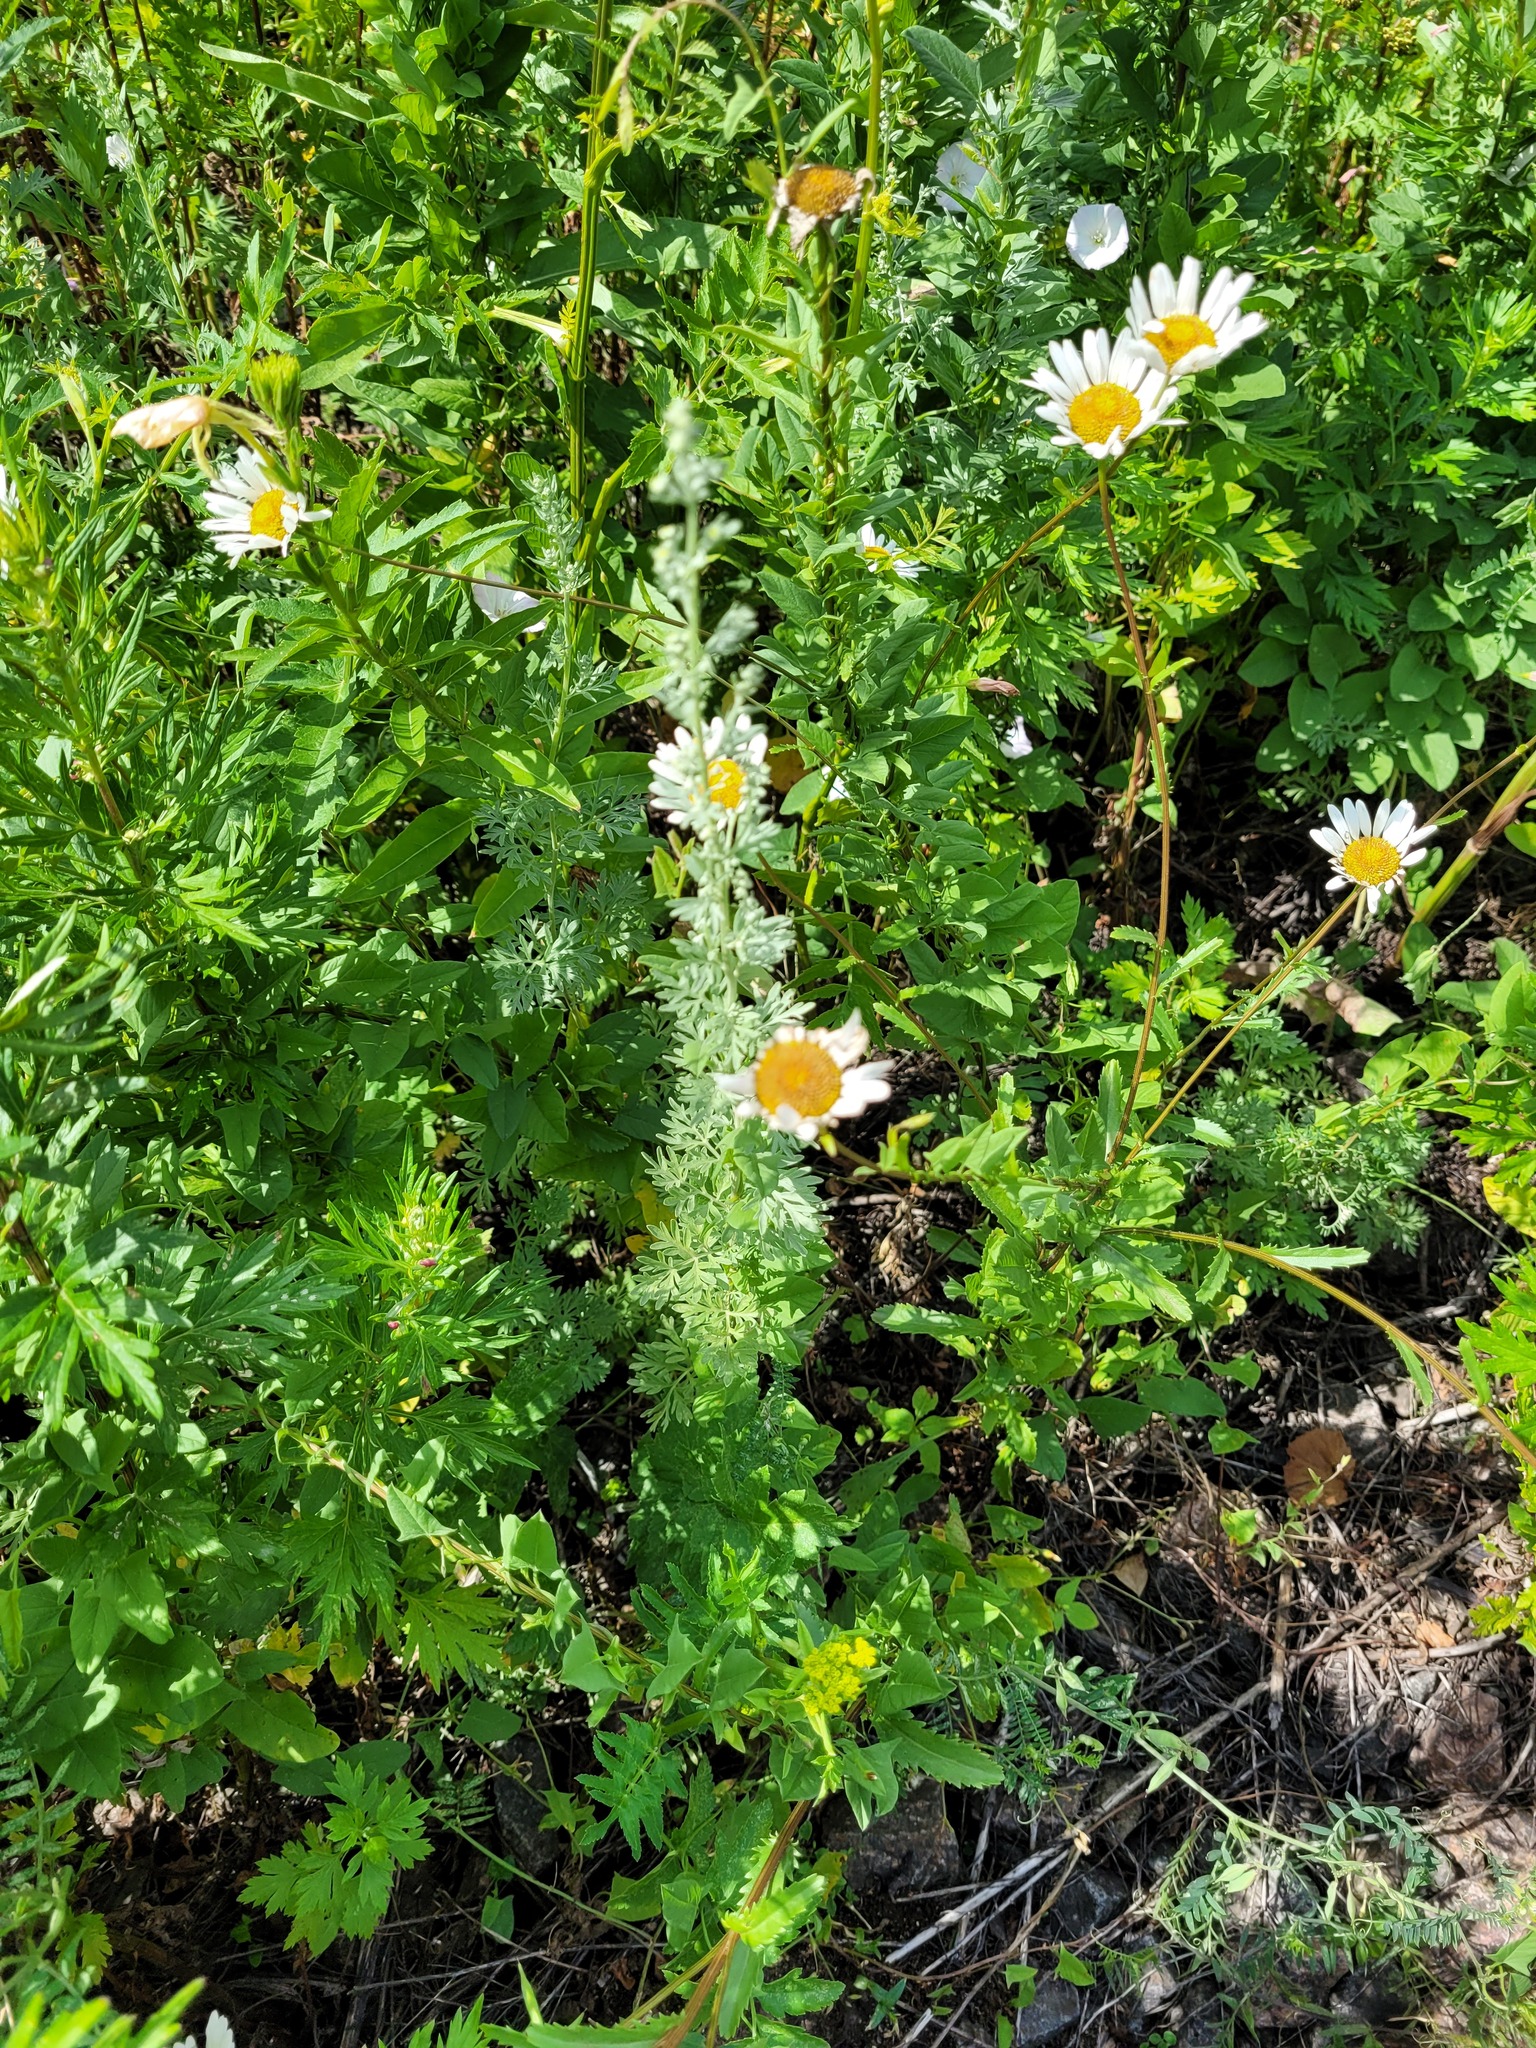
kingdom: Plantae
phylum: Tracheophyta
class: Magnoliopsida
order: Asterales
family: Asteraceae
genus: Artemisia
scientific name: Artemisia absinthium
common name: Wormwood
